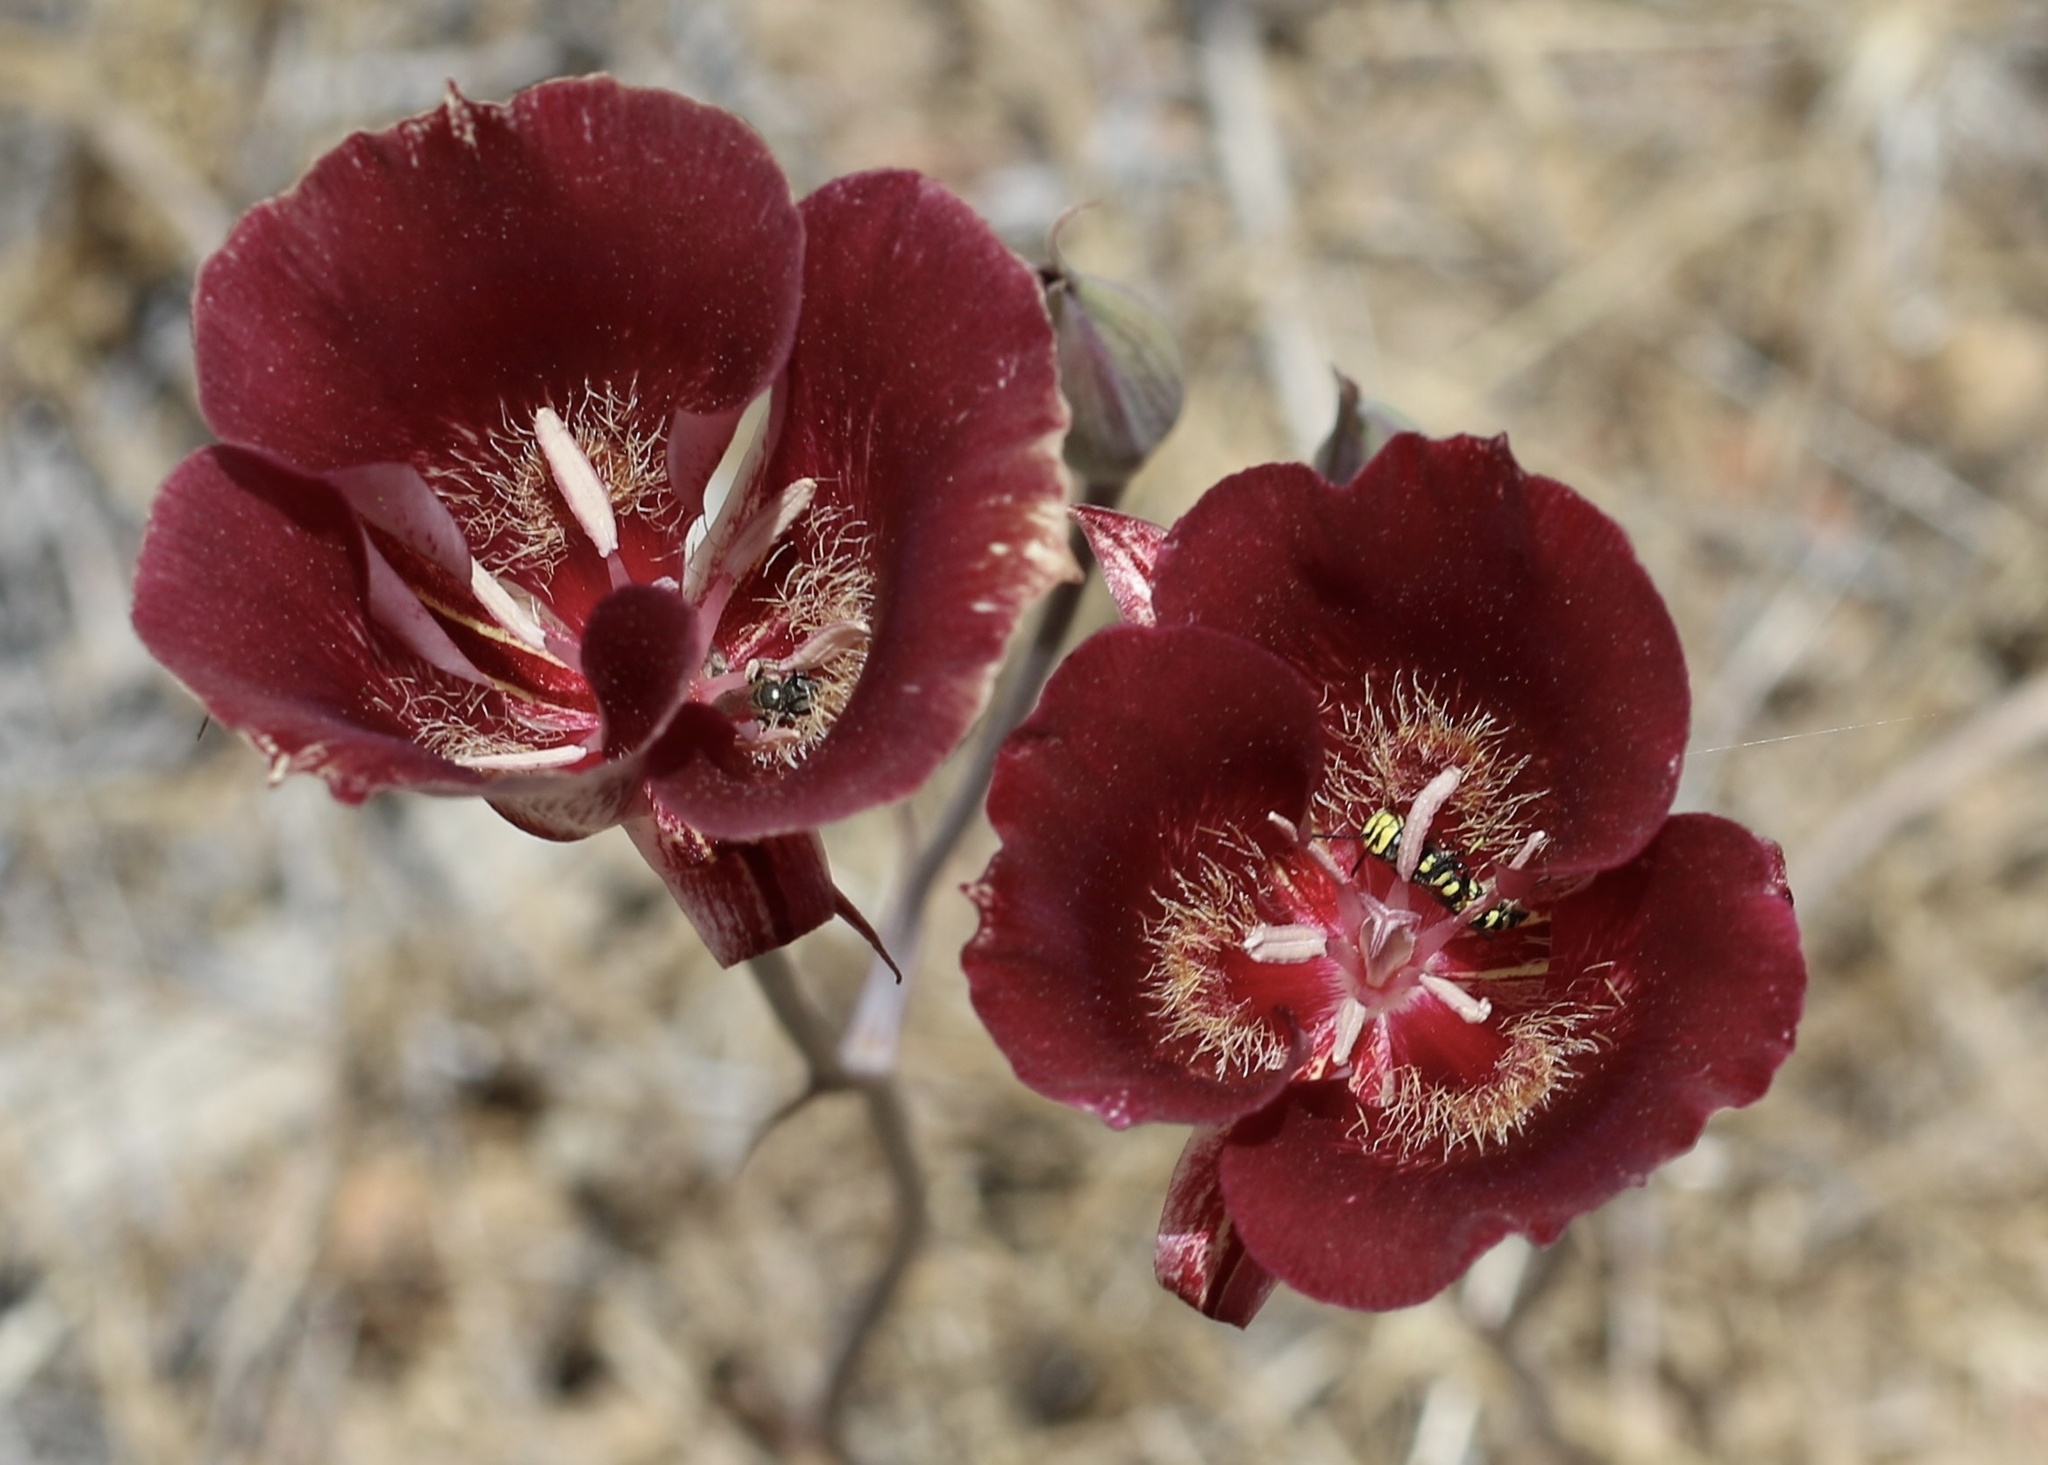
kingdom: Plantae
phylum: Tracheophyta
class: Liliopsida
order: Liliales
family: Liliaceae
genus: Calochortus
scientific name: Calochortus venustus
